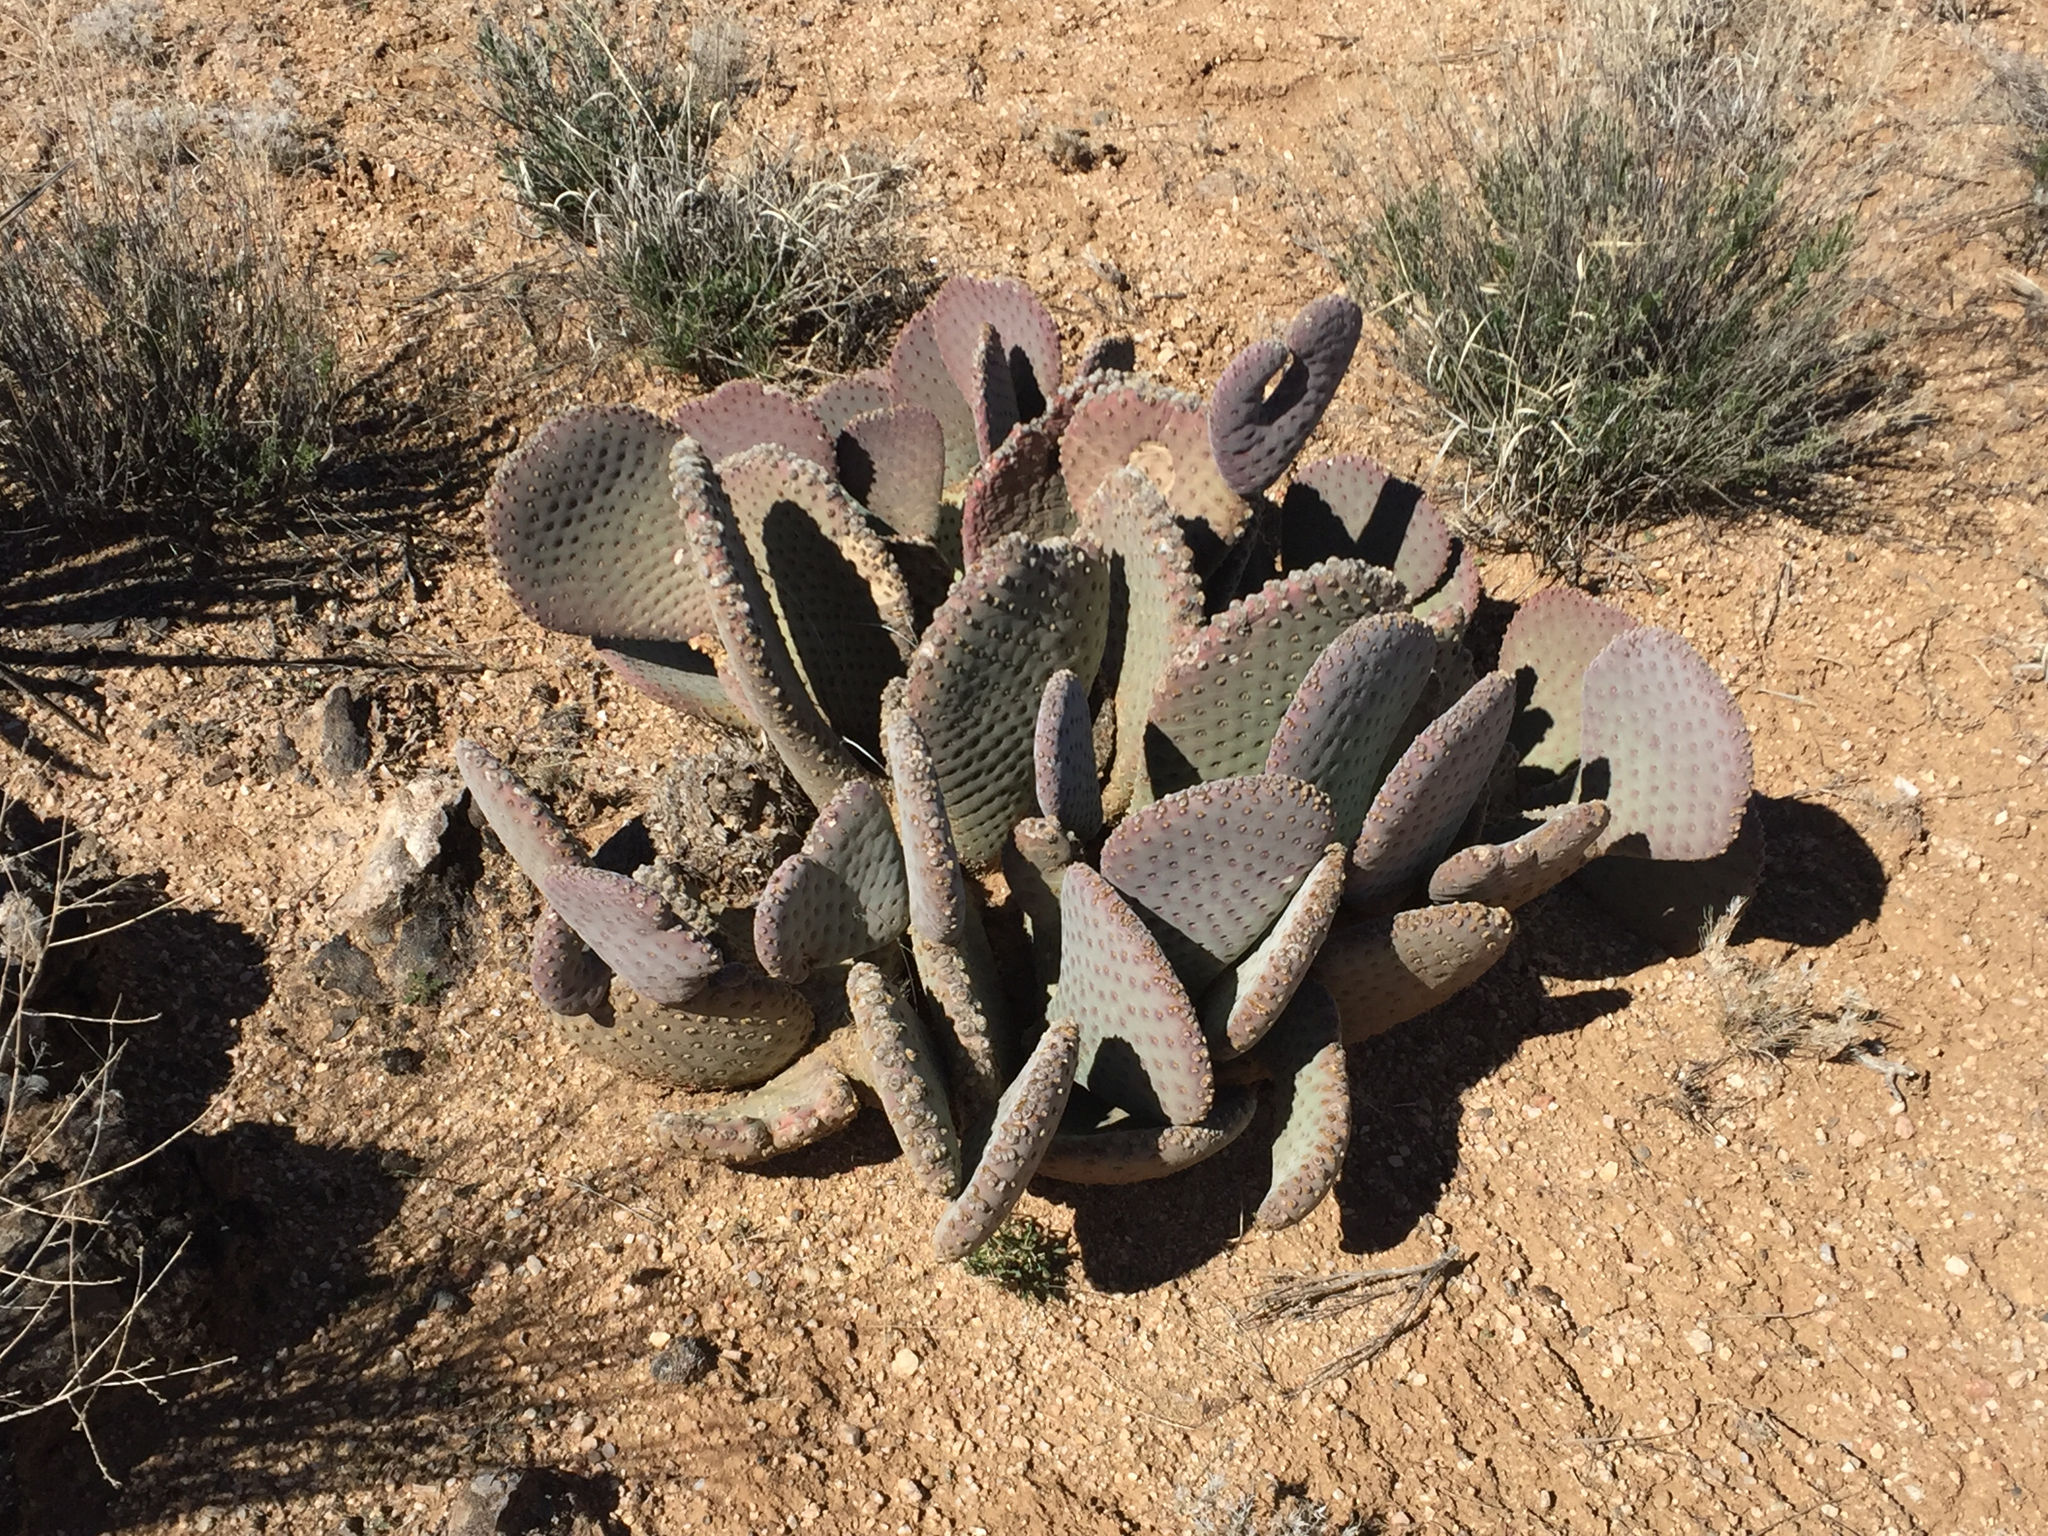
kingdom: Plantae
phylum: Tracheophyta
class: Magnoliopsida
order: Caryophyllales
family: Cactaceae
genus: Opuntia
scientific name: Opuntia basilaris
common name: Beavertail prickly-pear
